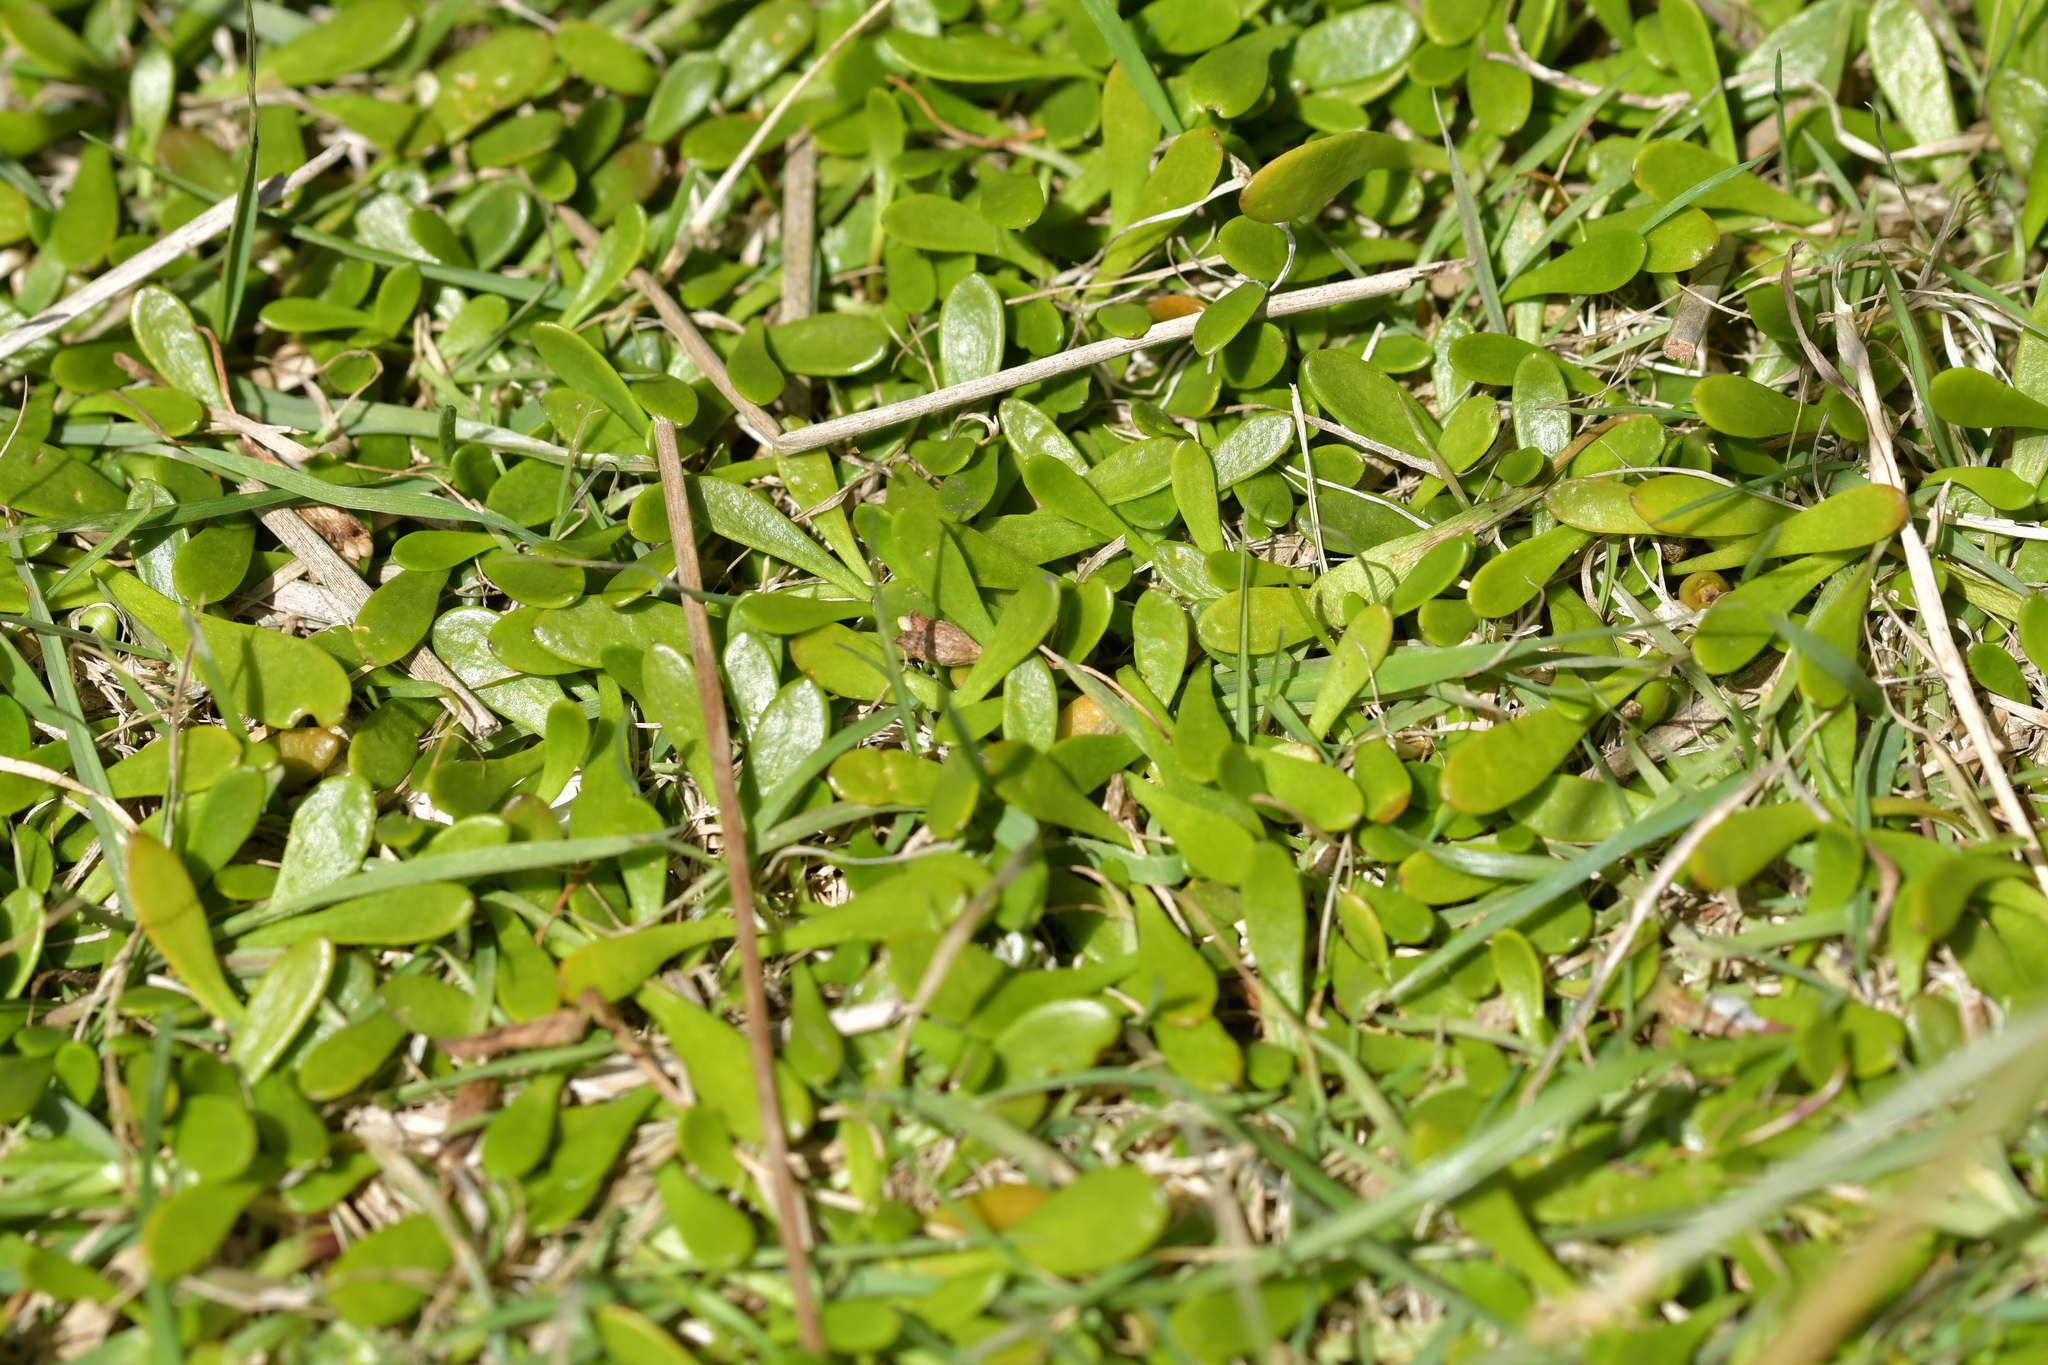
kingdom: Plantae
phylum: Tracheophyta
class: Magnoliopsida
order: Asterales
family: Goodeniaceae
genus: Goodenia
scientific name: Goodenia radicans
